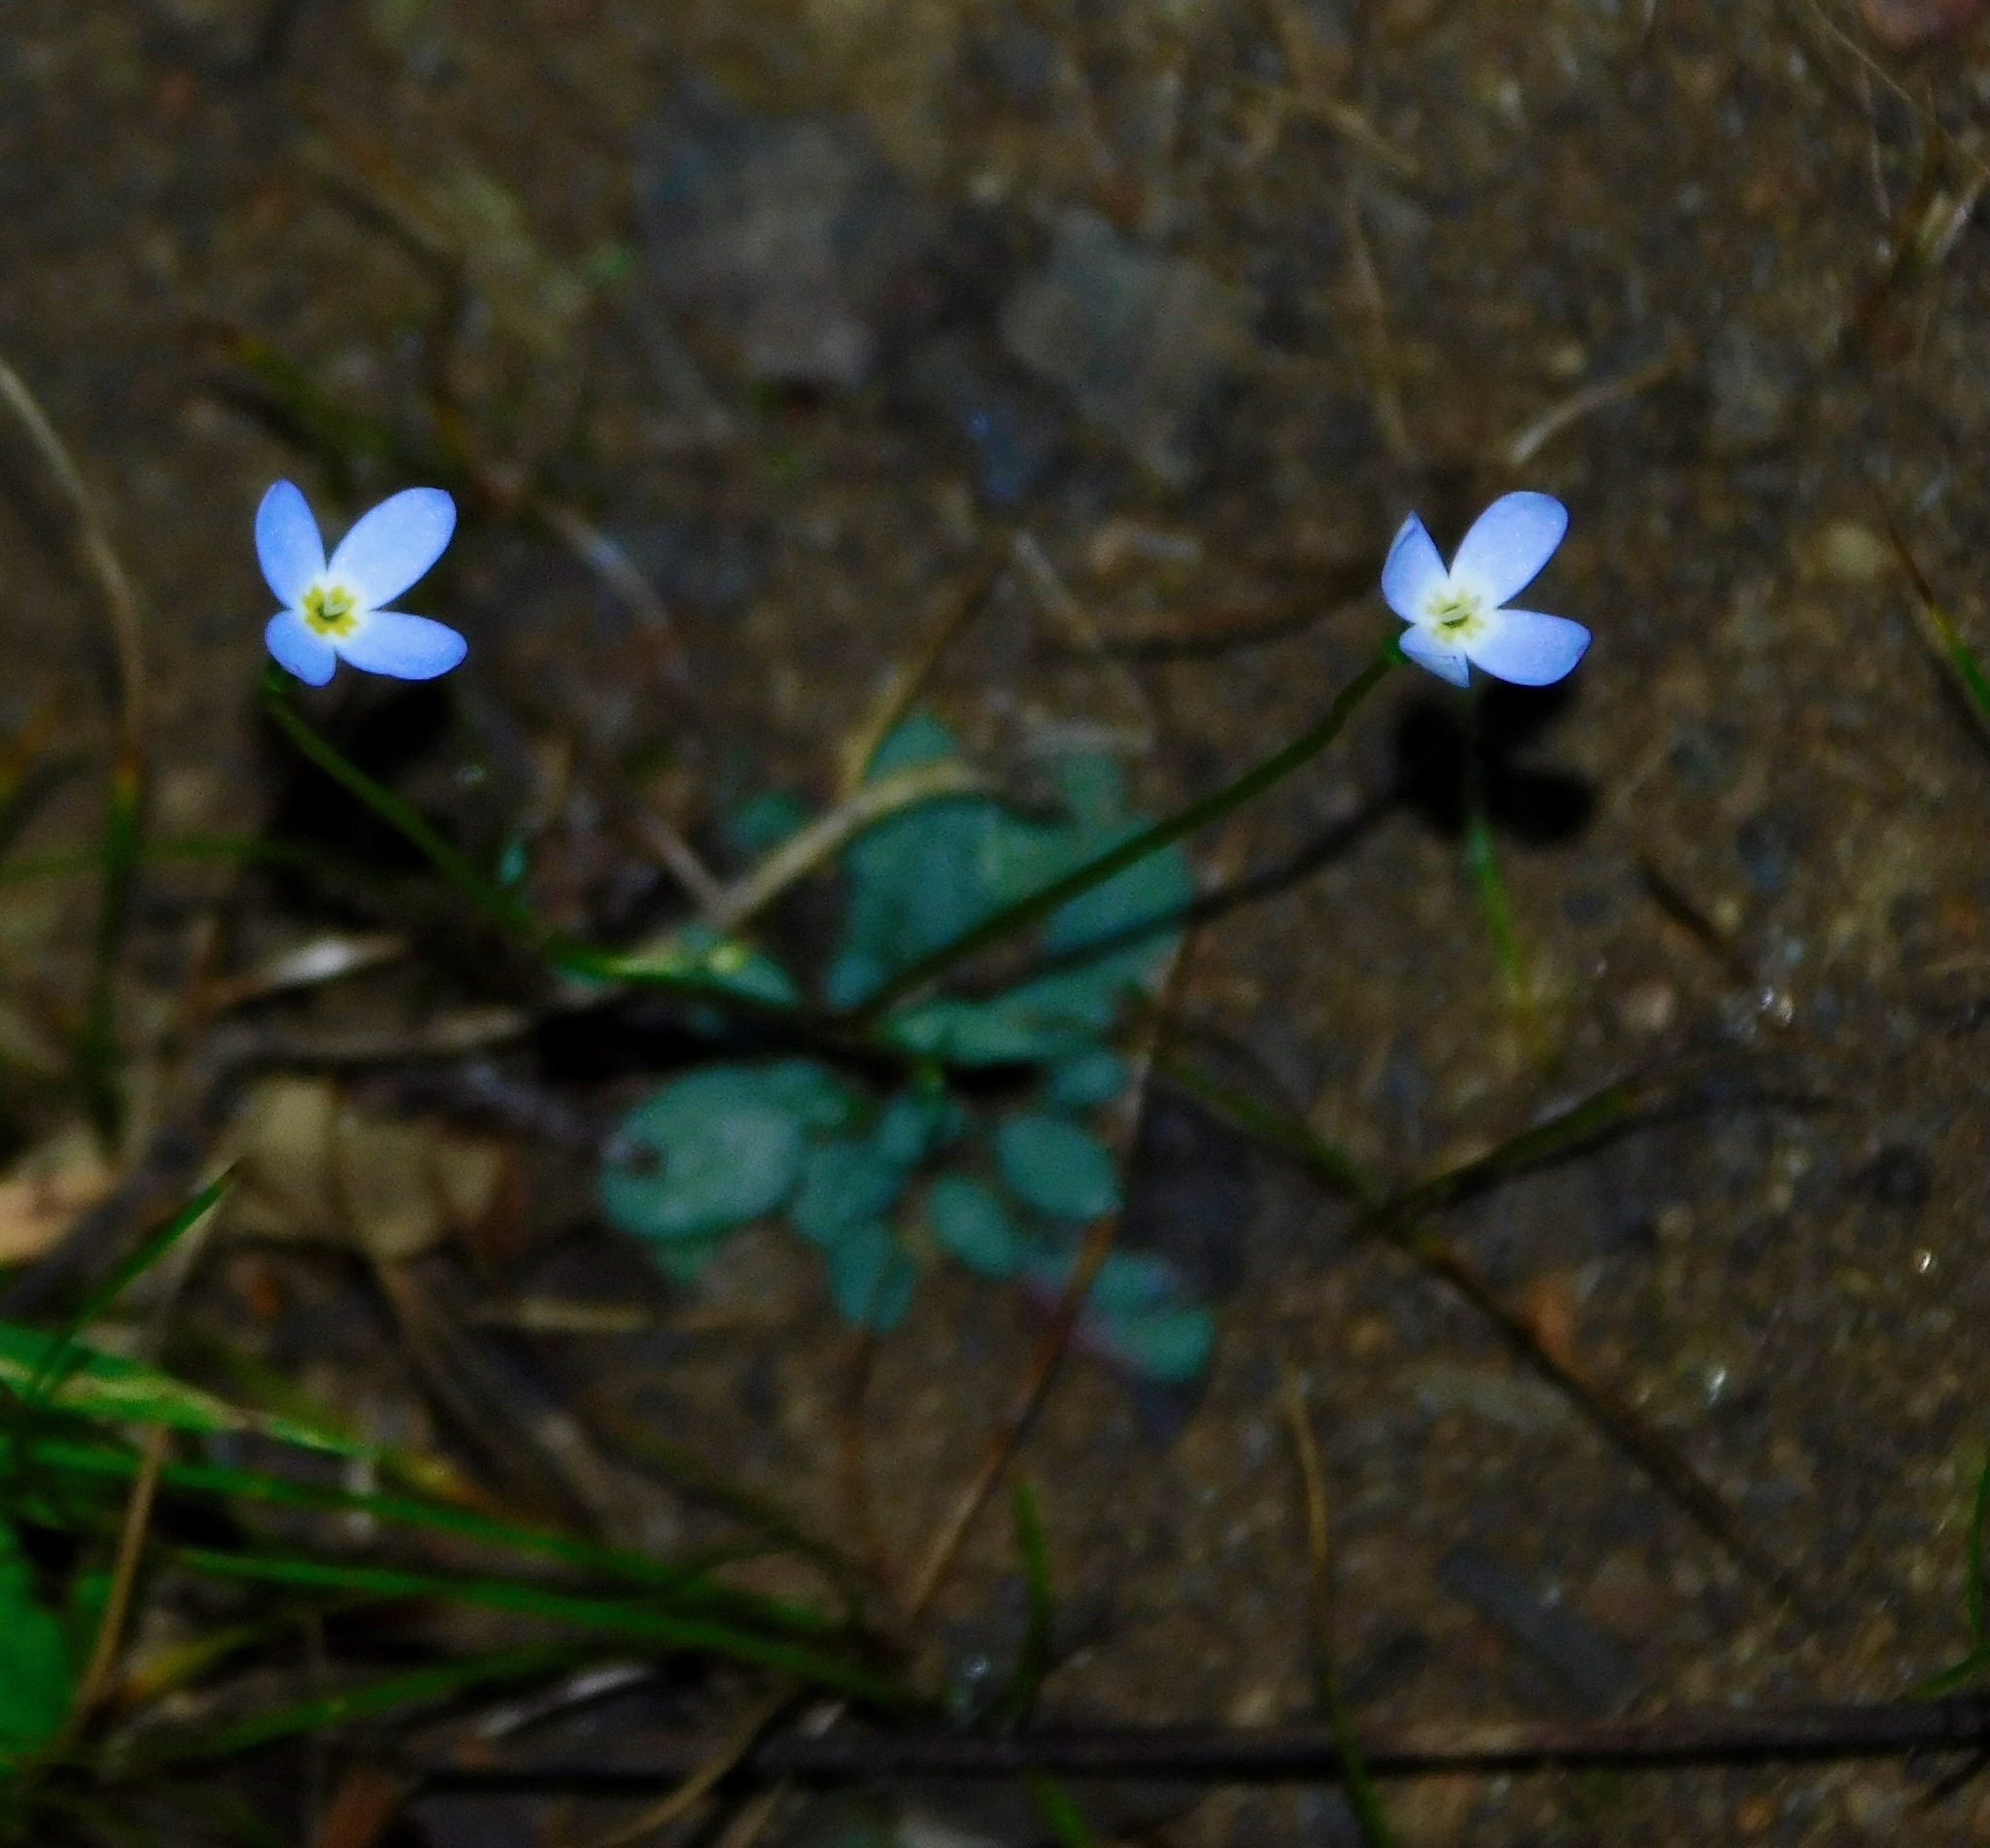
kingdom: Plantae
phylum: Tracheophyta
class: Magnoliopsida
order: Gentianales
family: Rubiaceae
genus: Houstonia
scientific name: Houstonia caerulea
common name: Bluets
